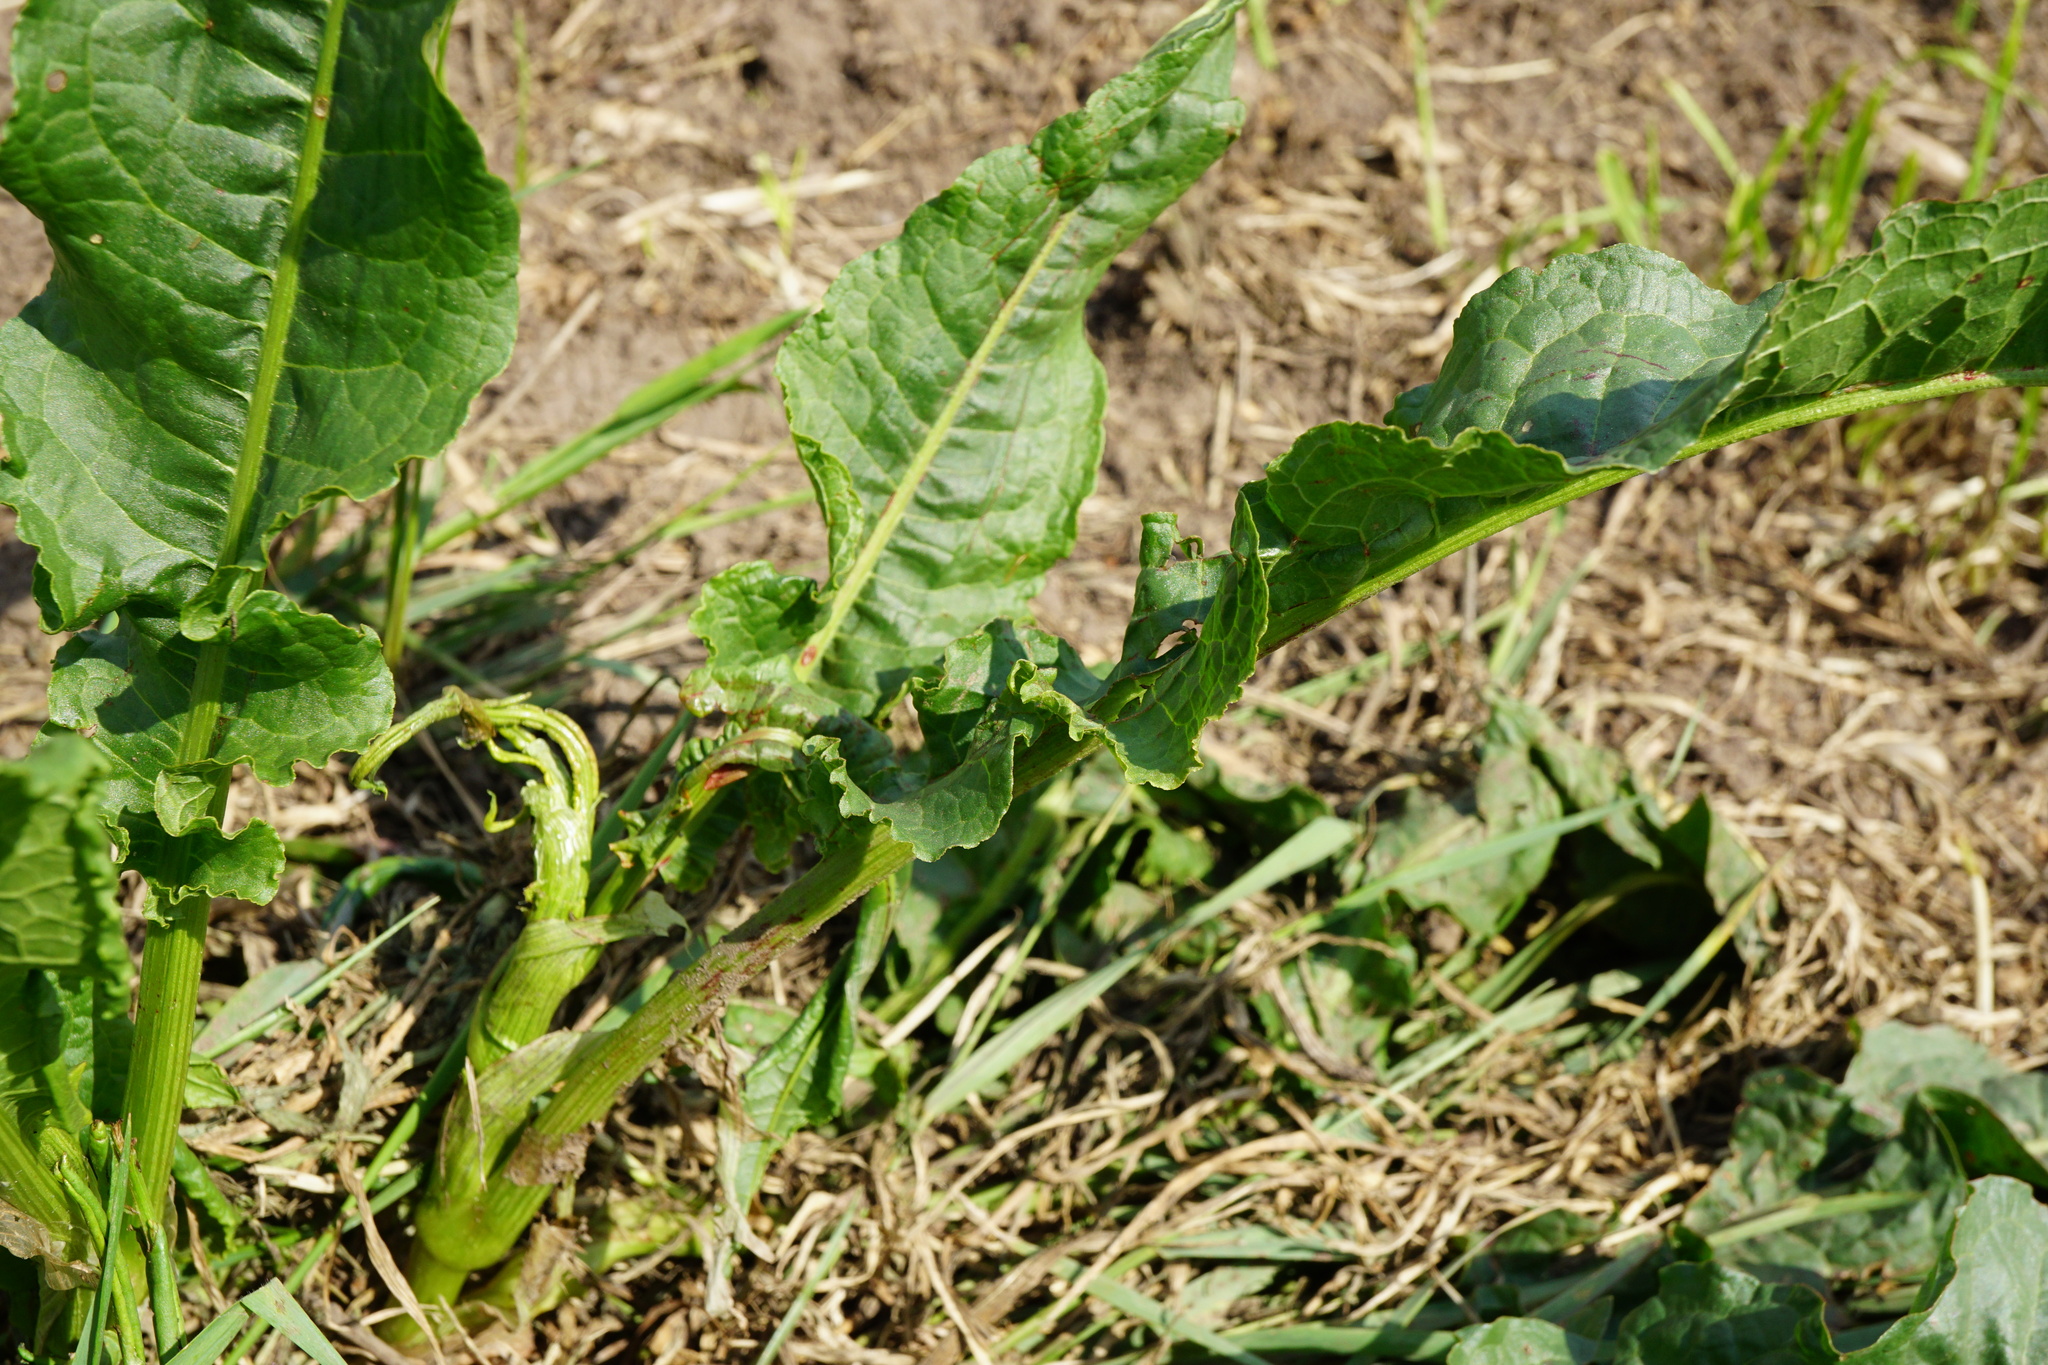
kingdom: Plantae
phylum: Tracheophyta
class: Magnoliopsida
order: Caryophyllales
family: Polygonaceae
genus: Rumex
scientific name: Rumex crispus
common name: Curled dock
